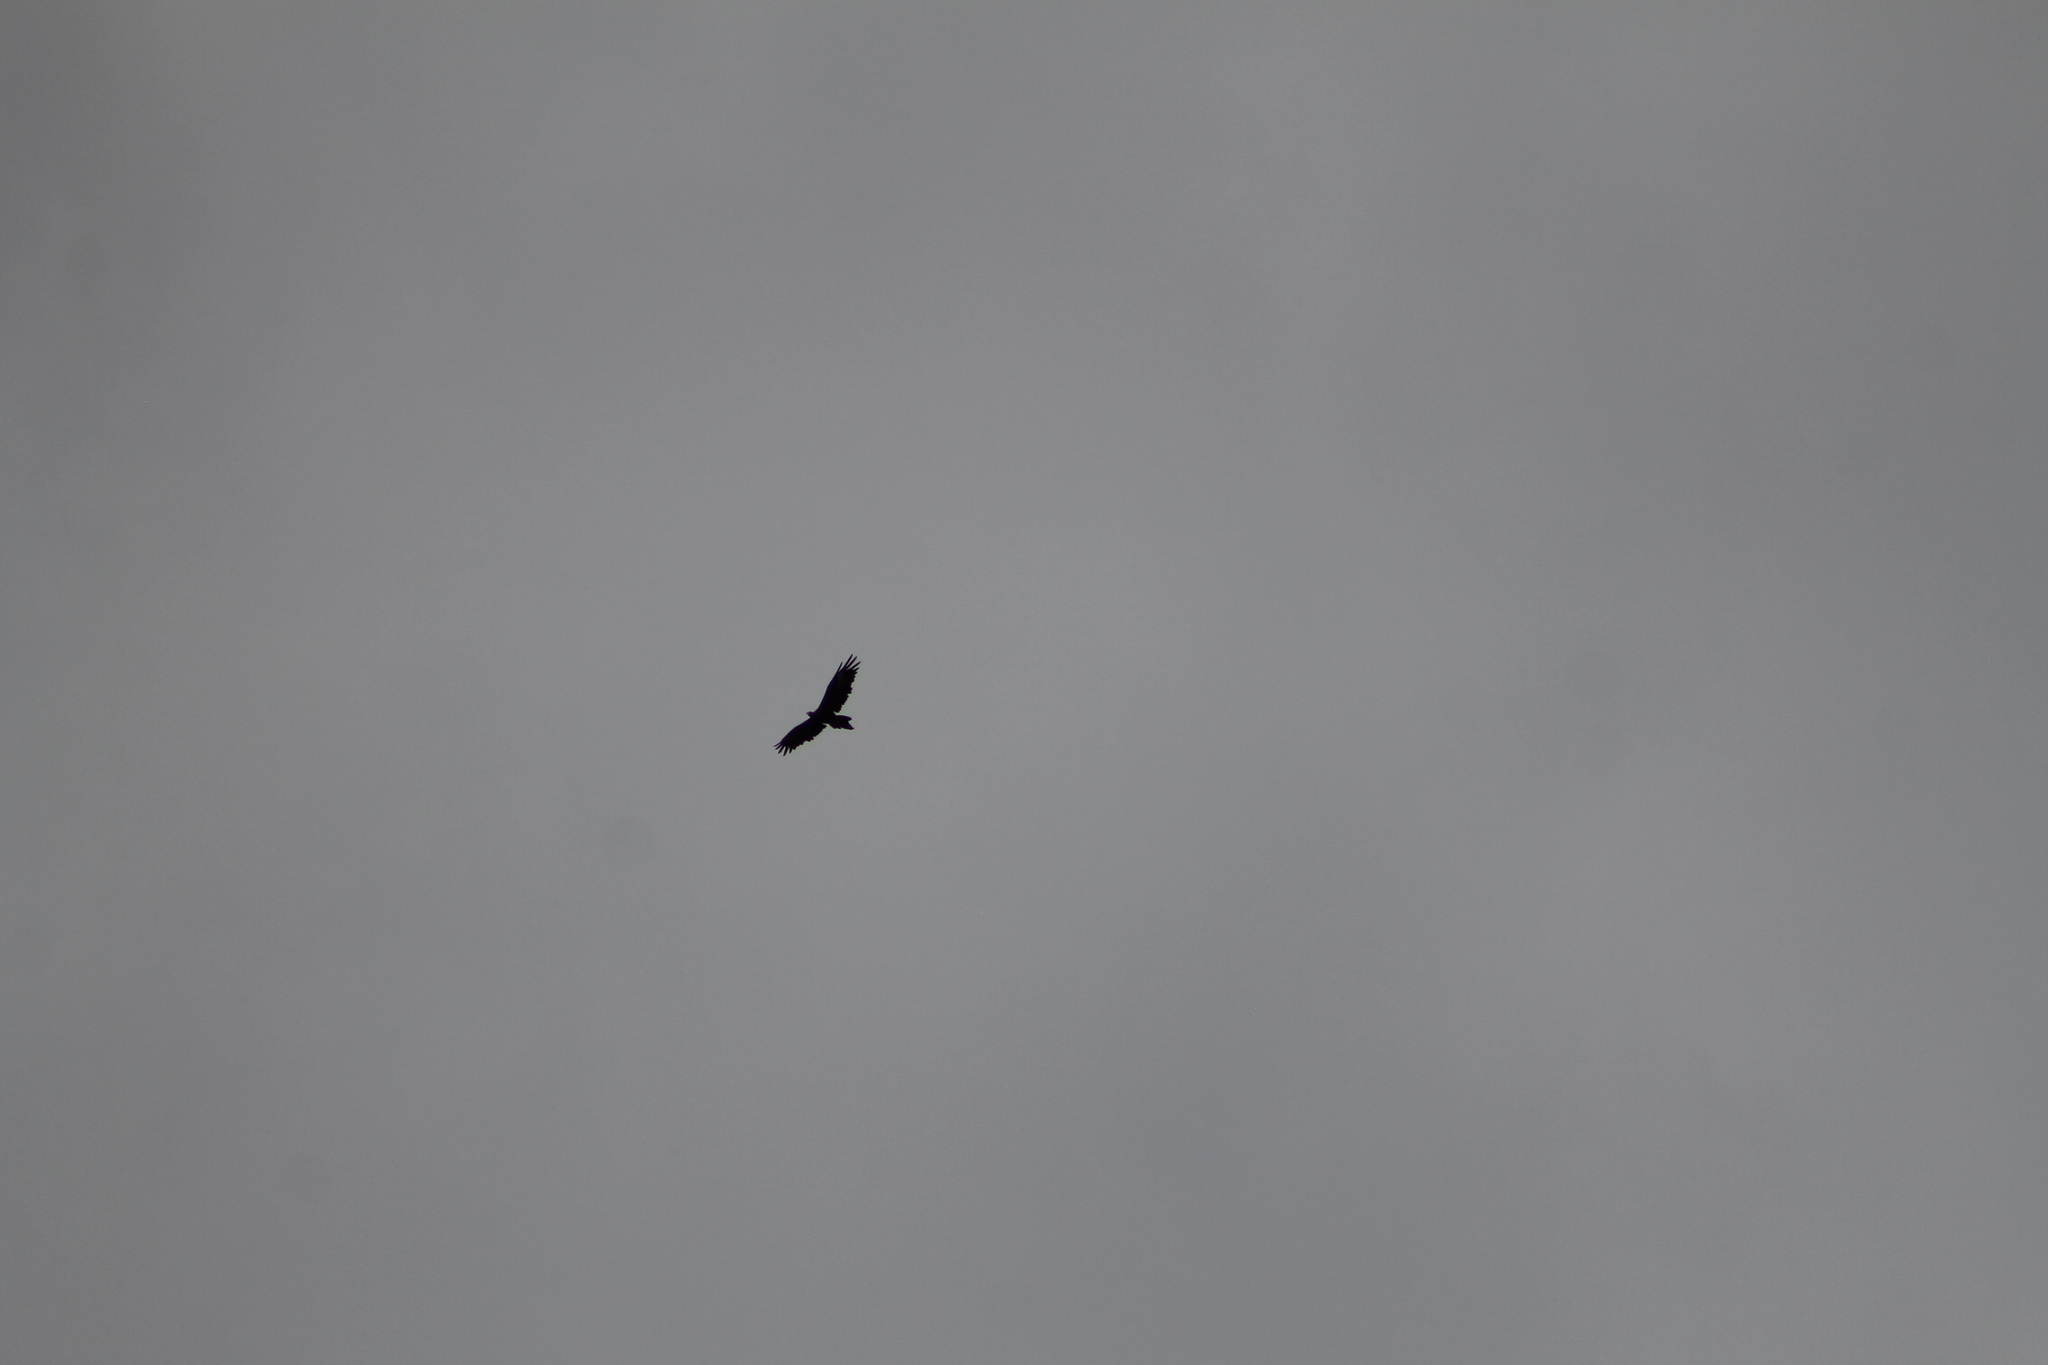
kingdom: Animalia
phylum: Chordata
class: Aves
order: Accipitriformes
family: Accipitridae
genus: Aquila
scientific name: Aquila audax
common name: Wedge-tailed eagle
